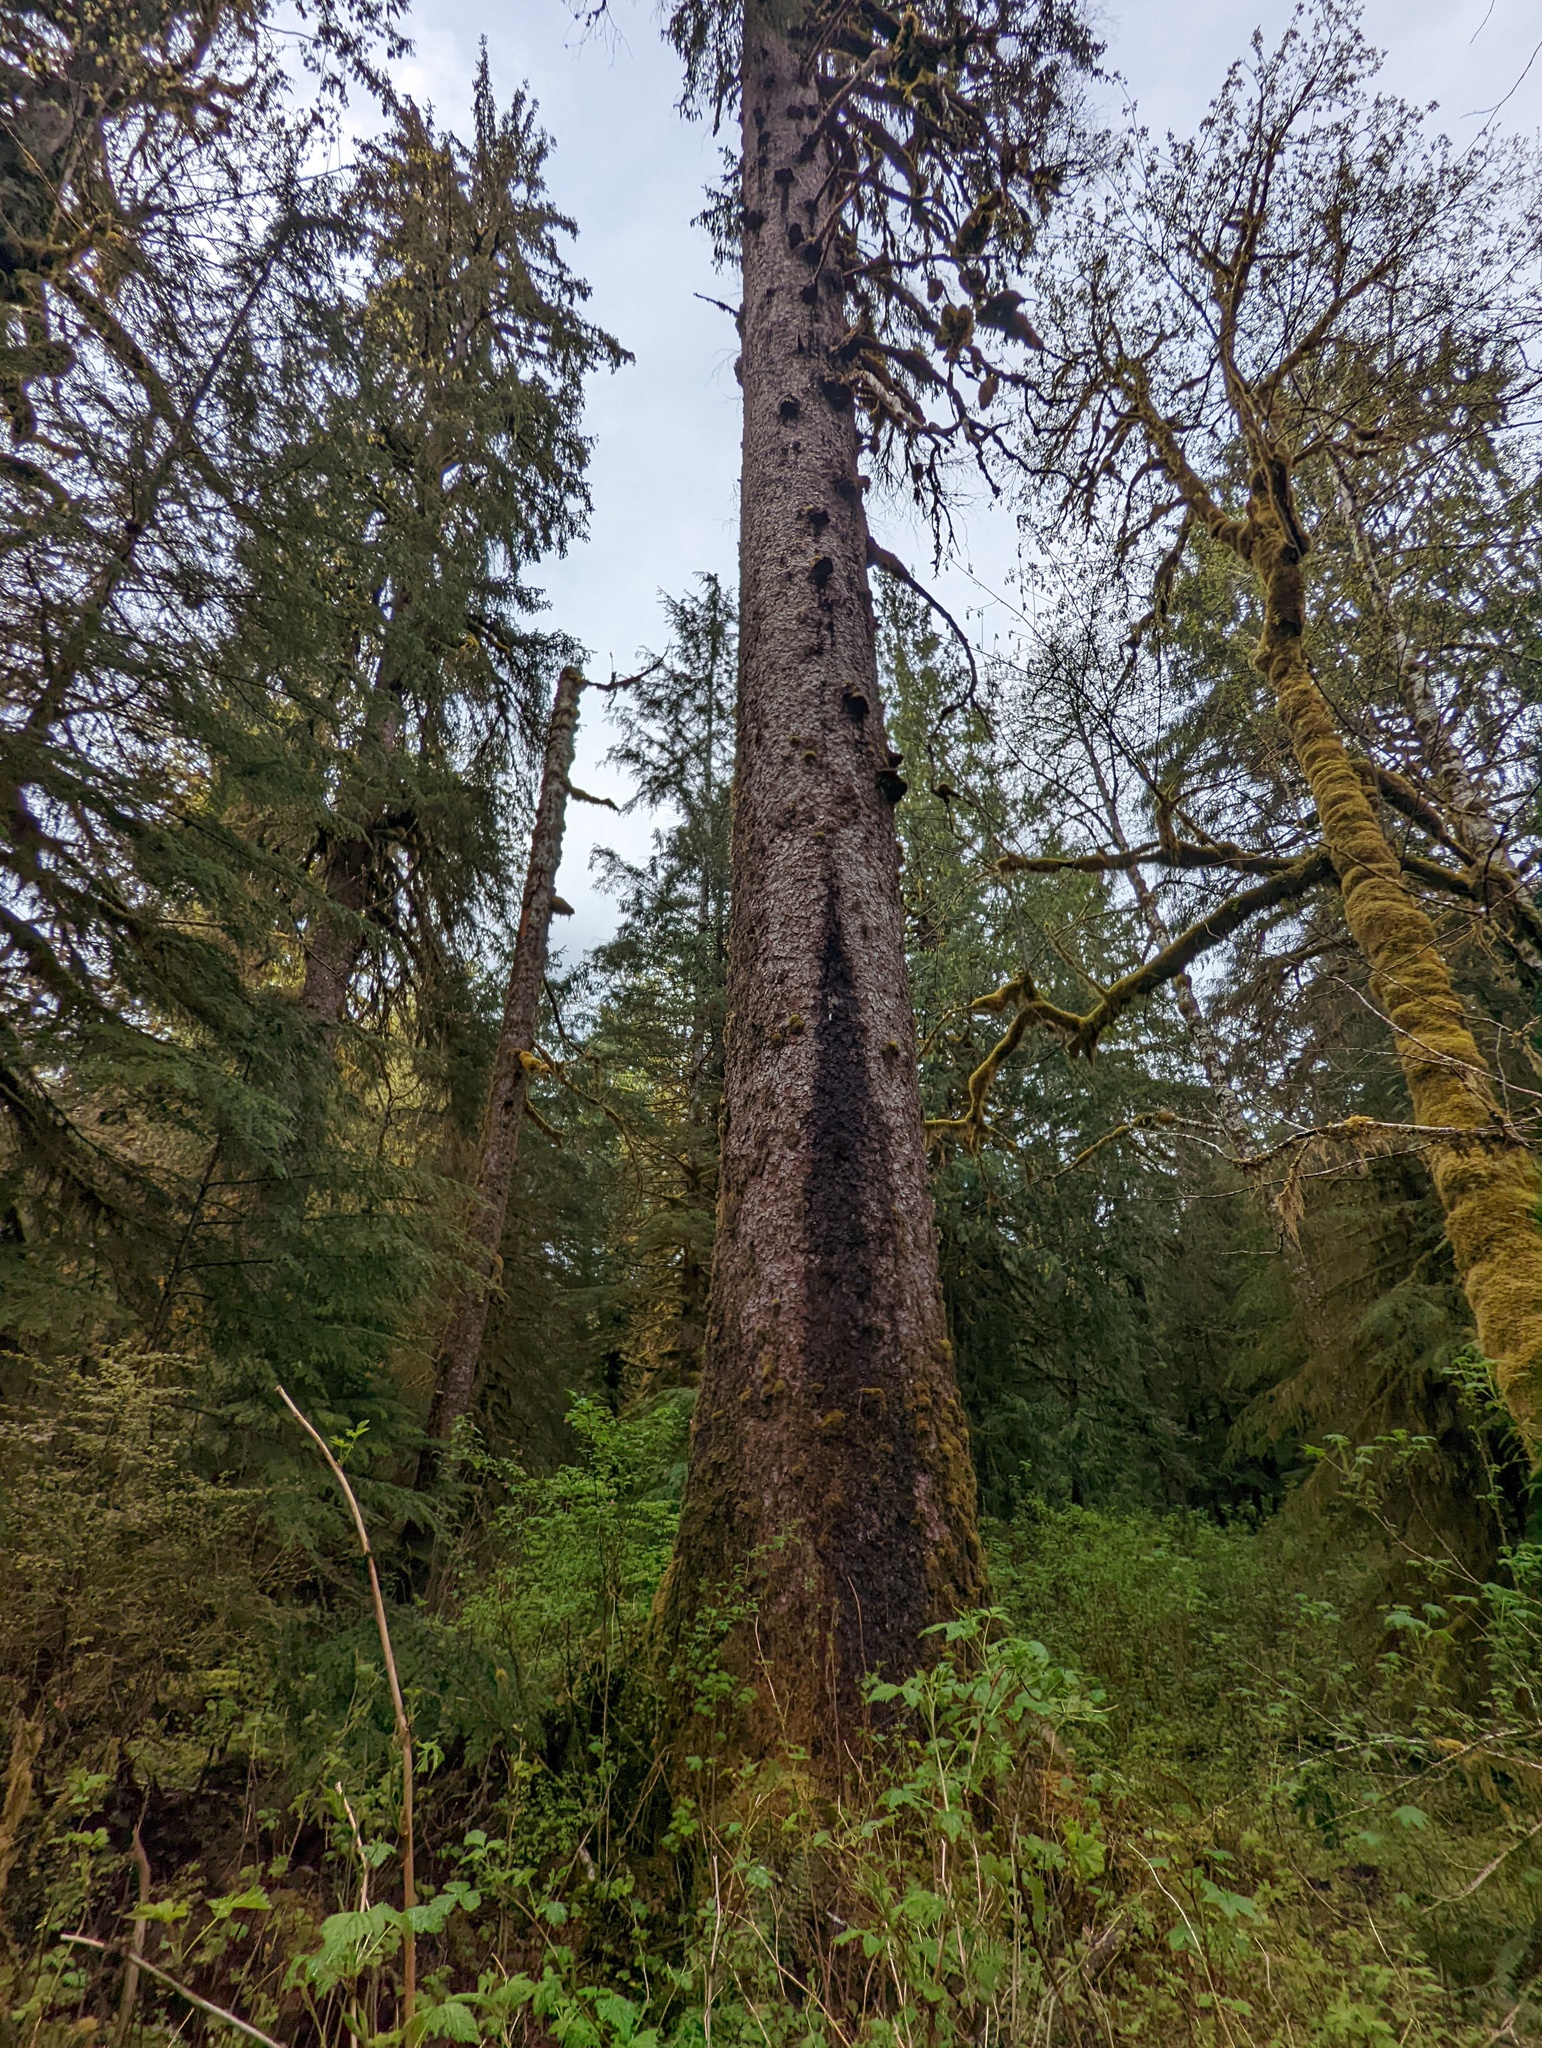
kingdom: Plantae
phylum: Tracheophyta
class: Pinopsida
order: Pinales
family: Pinaceae
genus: Picea
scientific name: Picea sitchensis
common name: Sitka spruce
